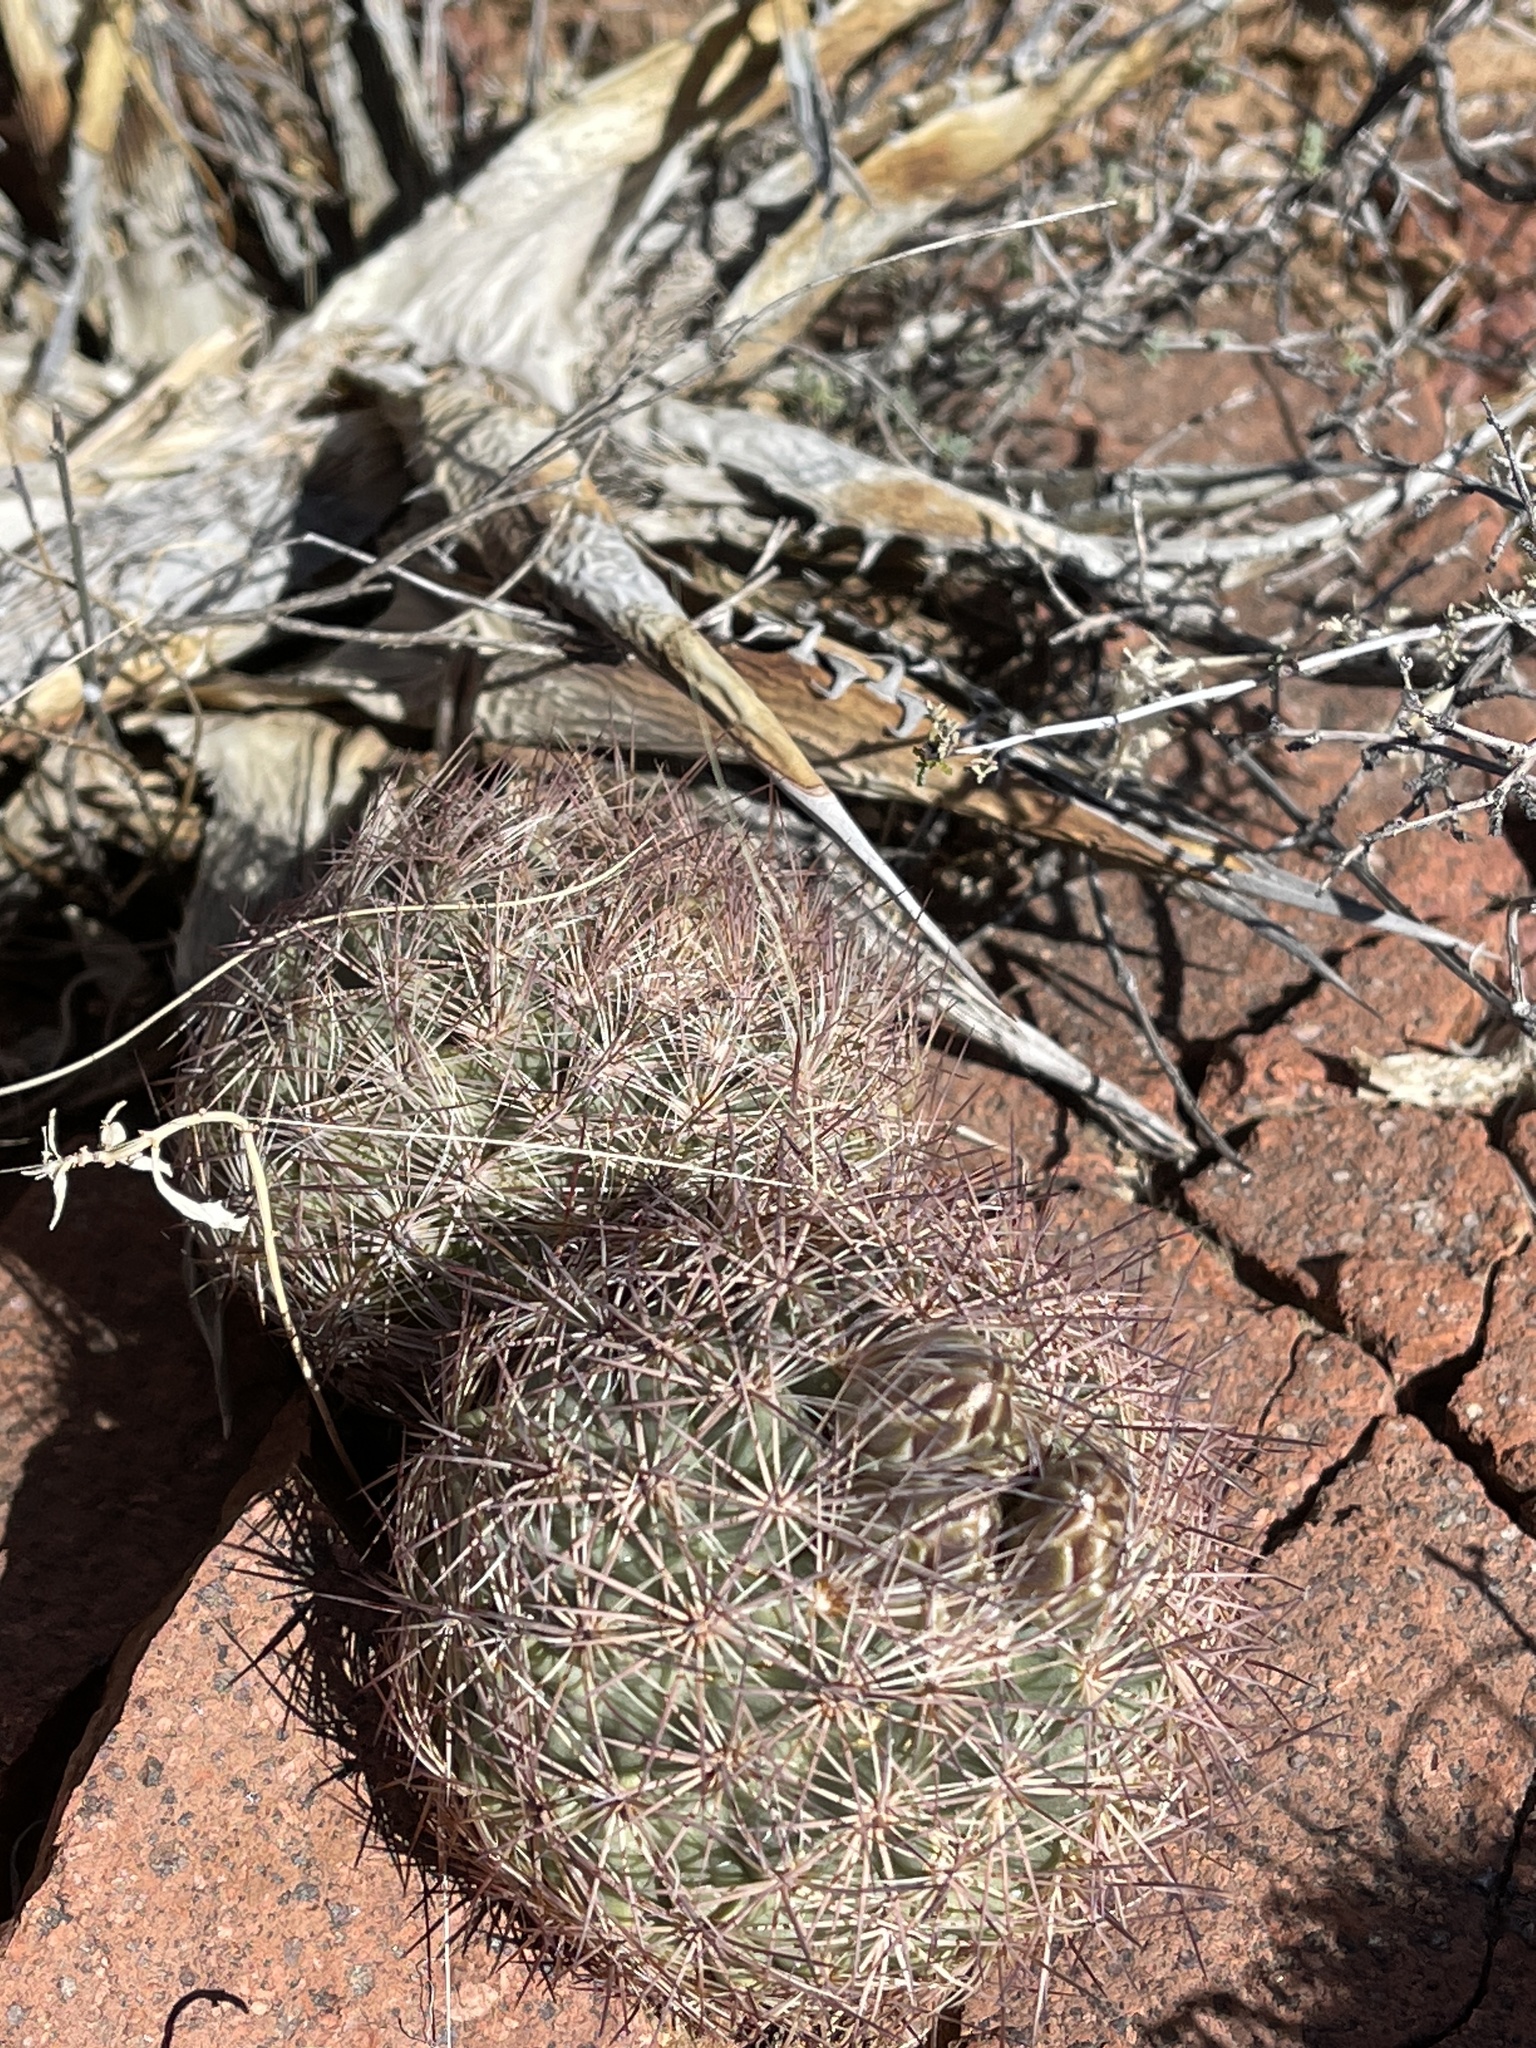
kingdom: Plantae
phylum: Tracheophyta
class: Magnoliopsida
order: Caryophyllales
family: Cactaceae
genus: Sclerocactus
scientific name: Sclerocactus intertextus
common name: White fish-hook cactus
